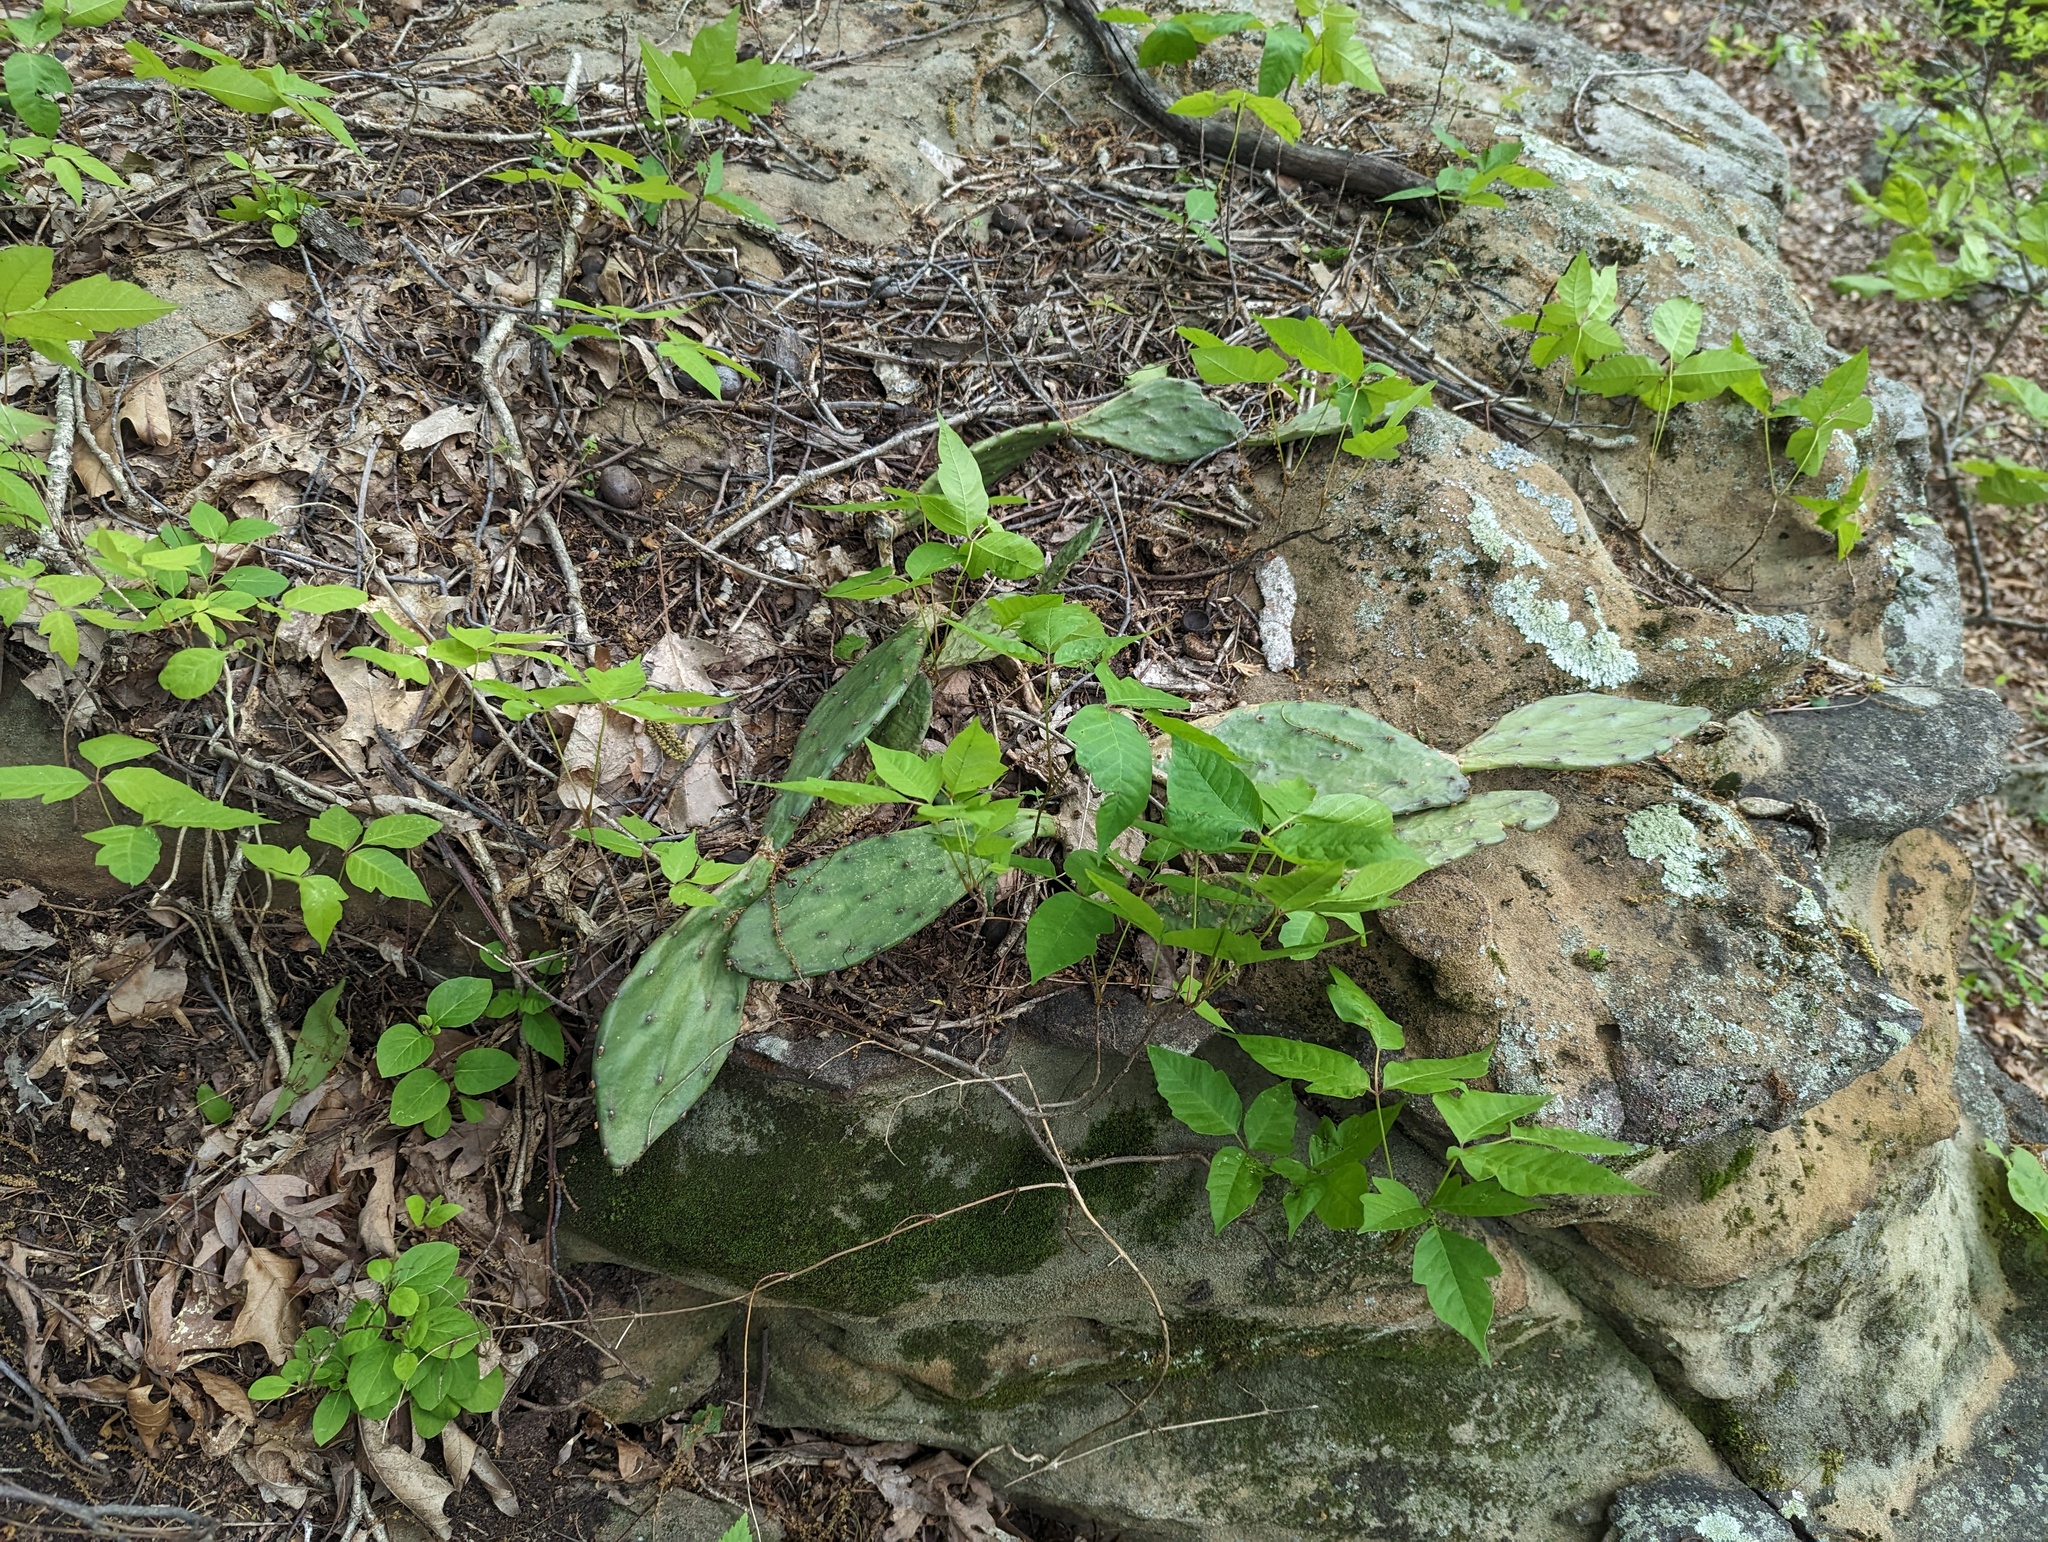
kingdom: Plantae
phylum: Tracheophyta
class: Magnoliopsida
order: Caryophyllales
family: Cactaceae
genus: Opuntia
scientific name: Opuntia humifusa
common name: Eastern prickly-pear
